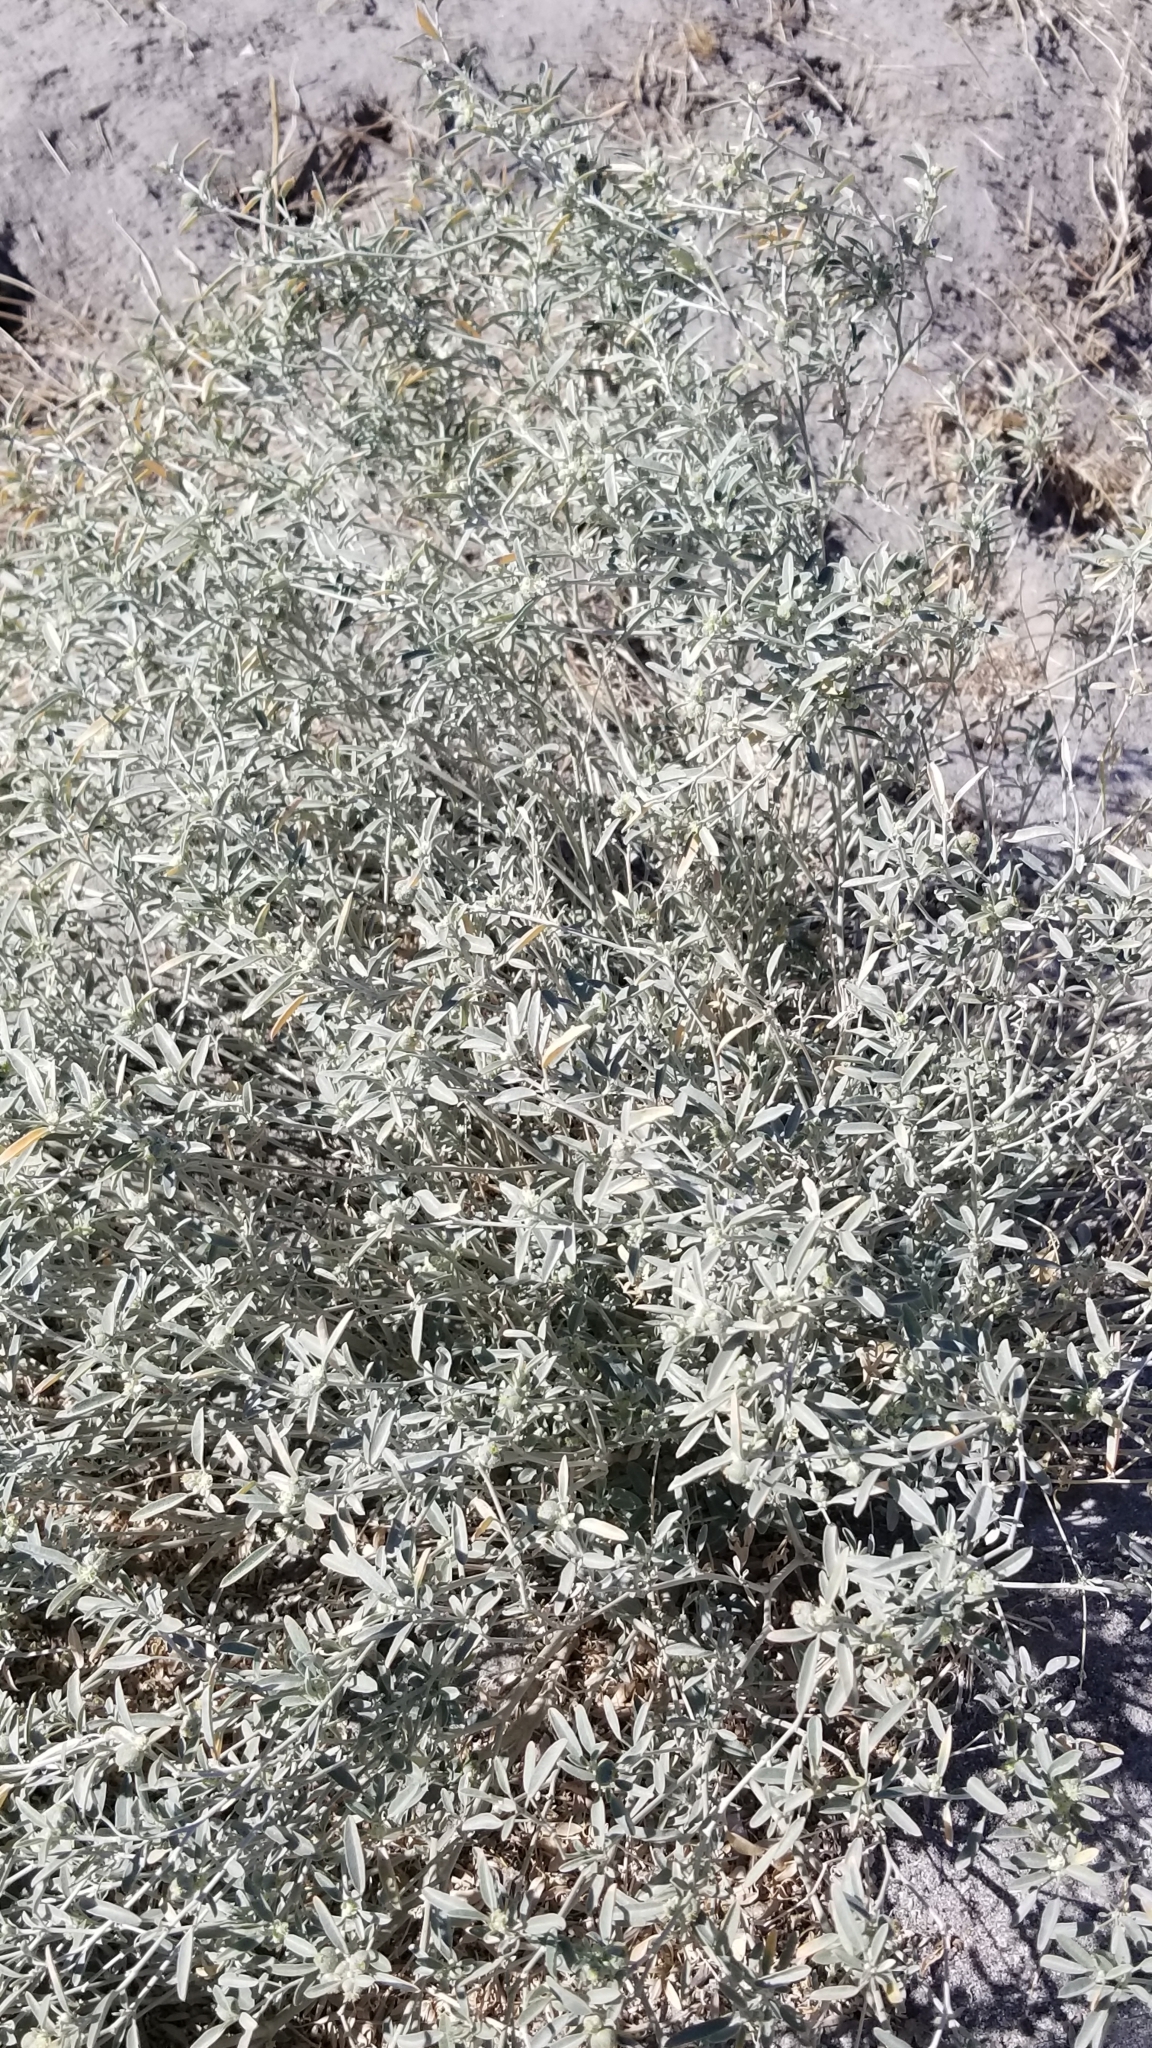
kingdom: Plantae
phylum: Tracheophyta
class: Magnoliopsida
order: Malpighiales
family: Euphorbiaceae
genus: Croton
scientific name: Croton californicus
